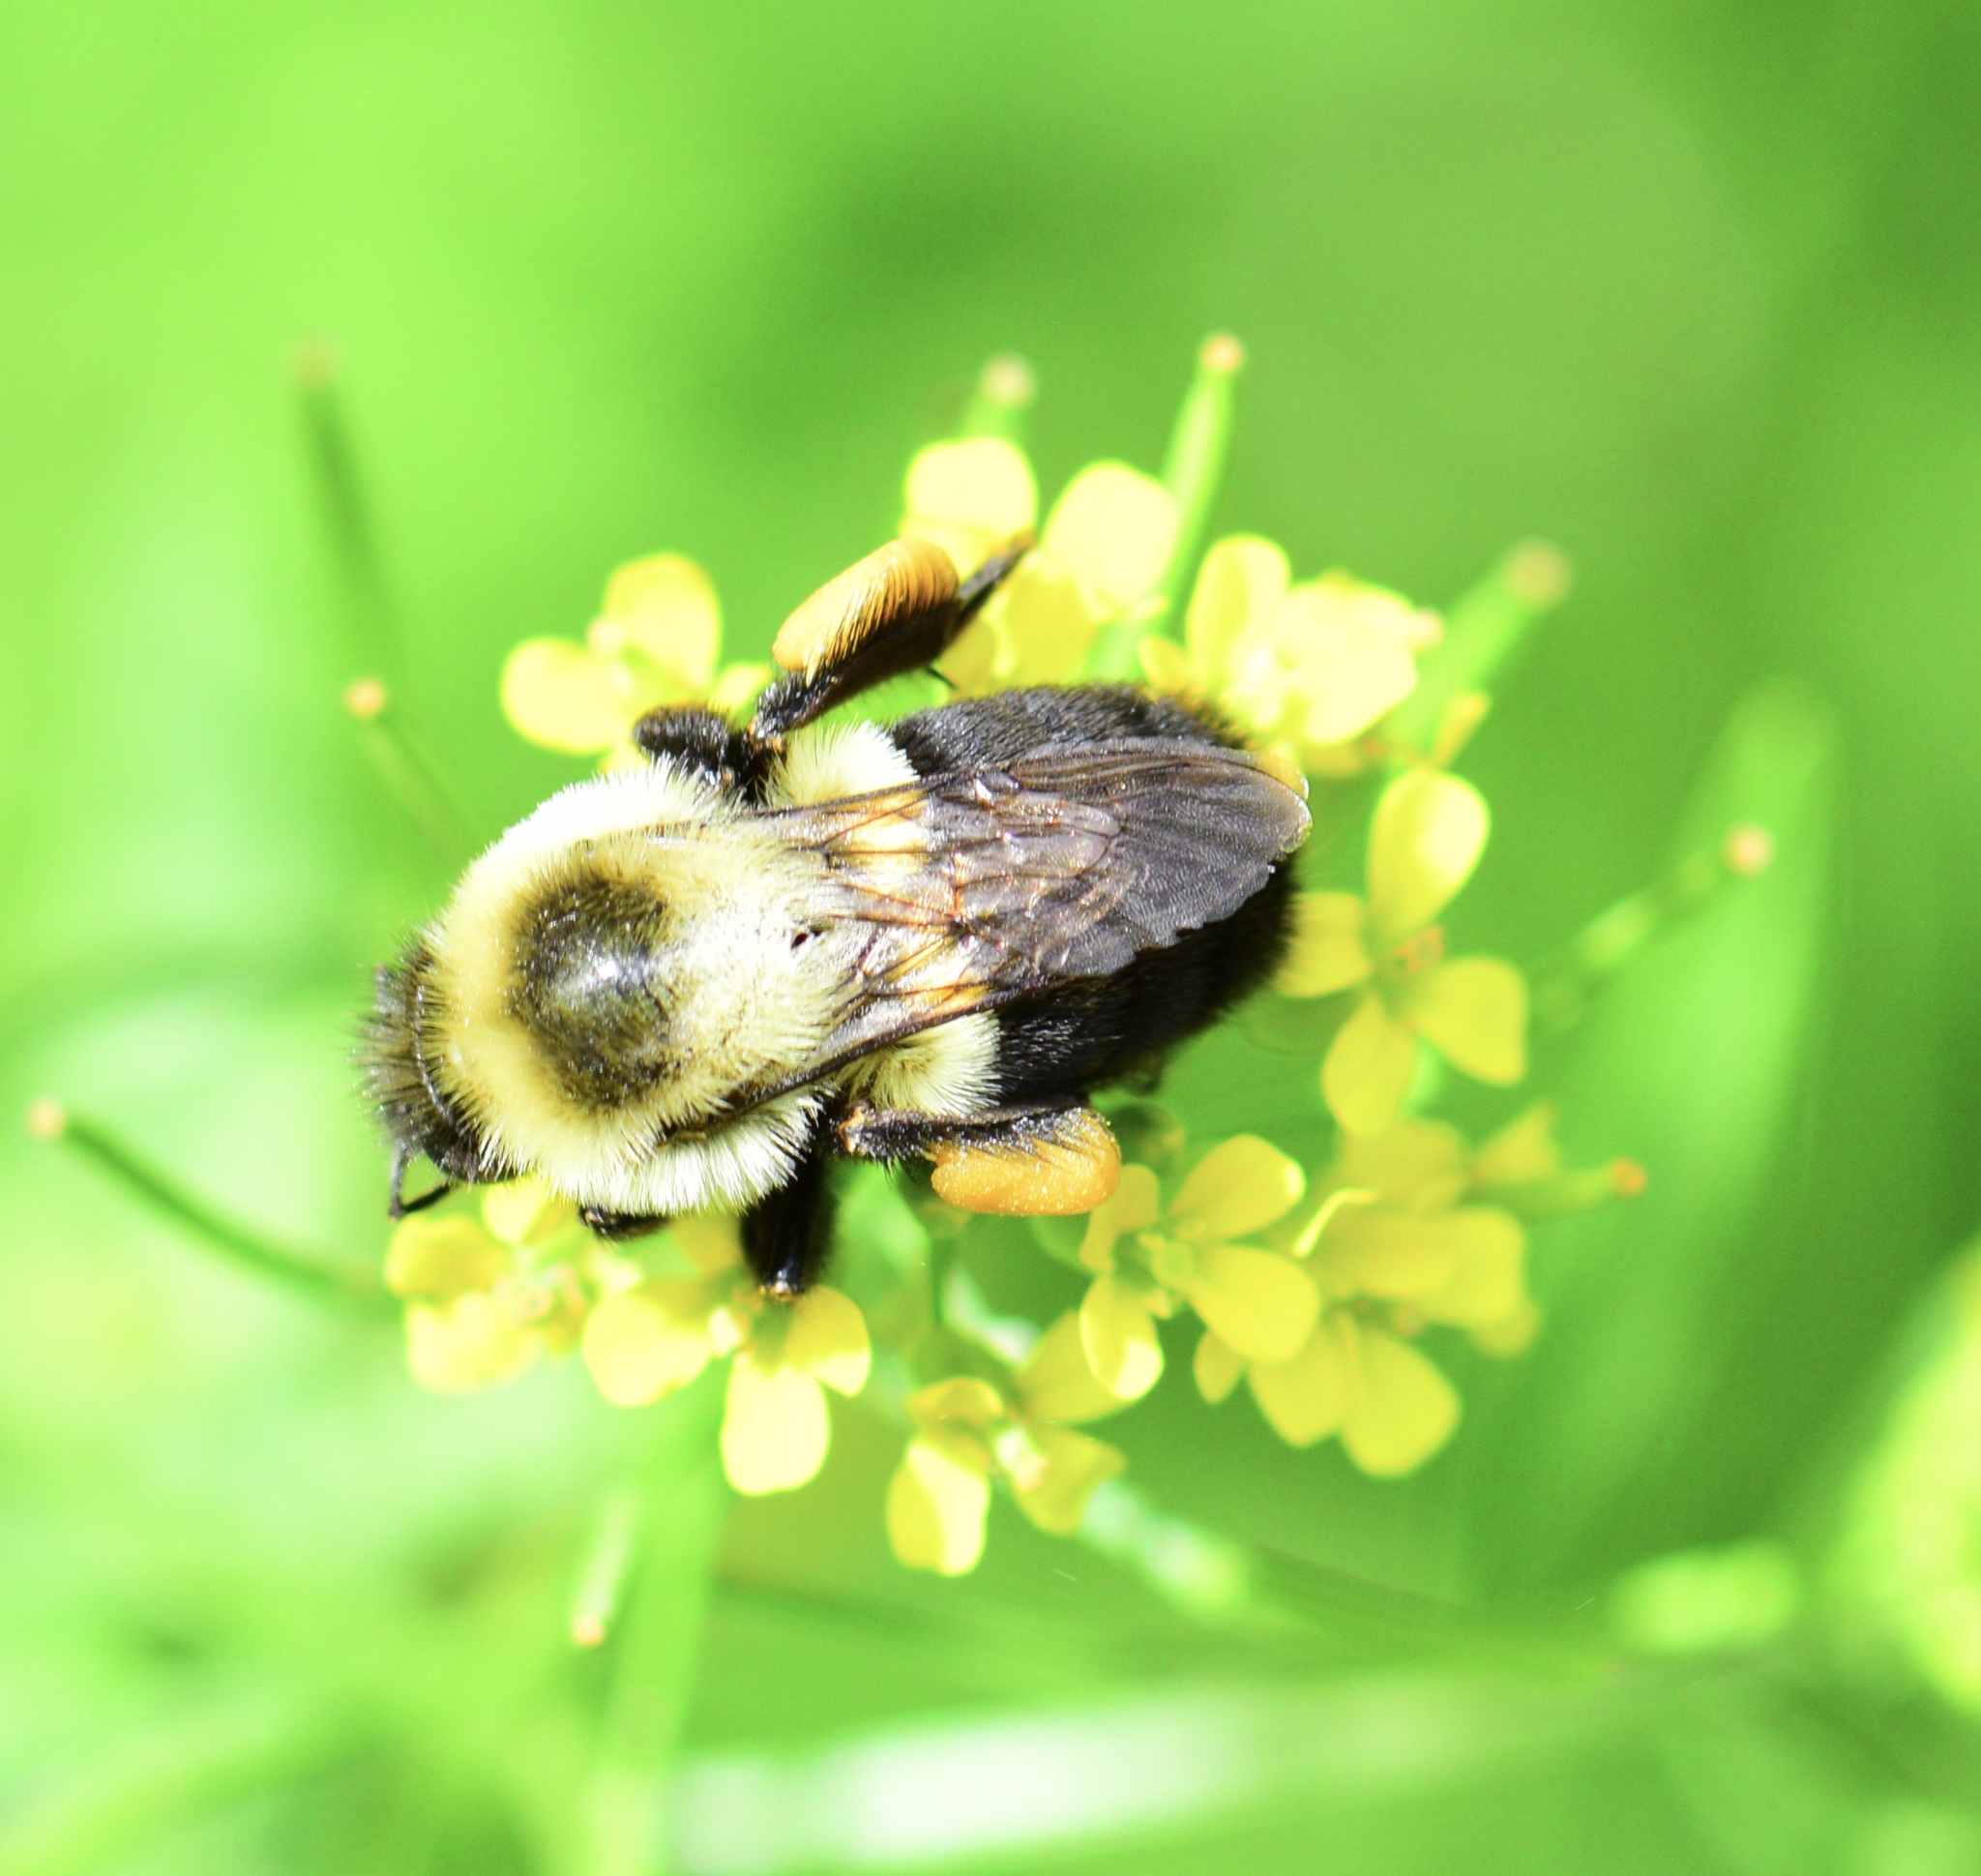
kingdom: Animalia
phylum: Arthropoda
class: Insecta
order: Hymenoptera
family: Apidae
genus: Bombus
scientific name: Bombus impatiens
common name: Common eastern bumble bee
